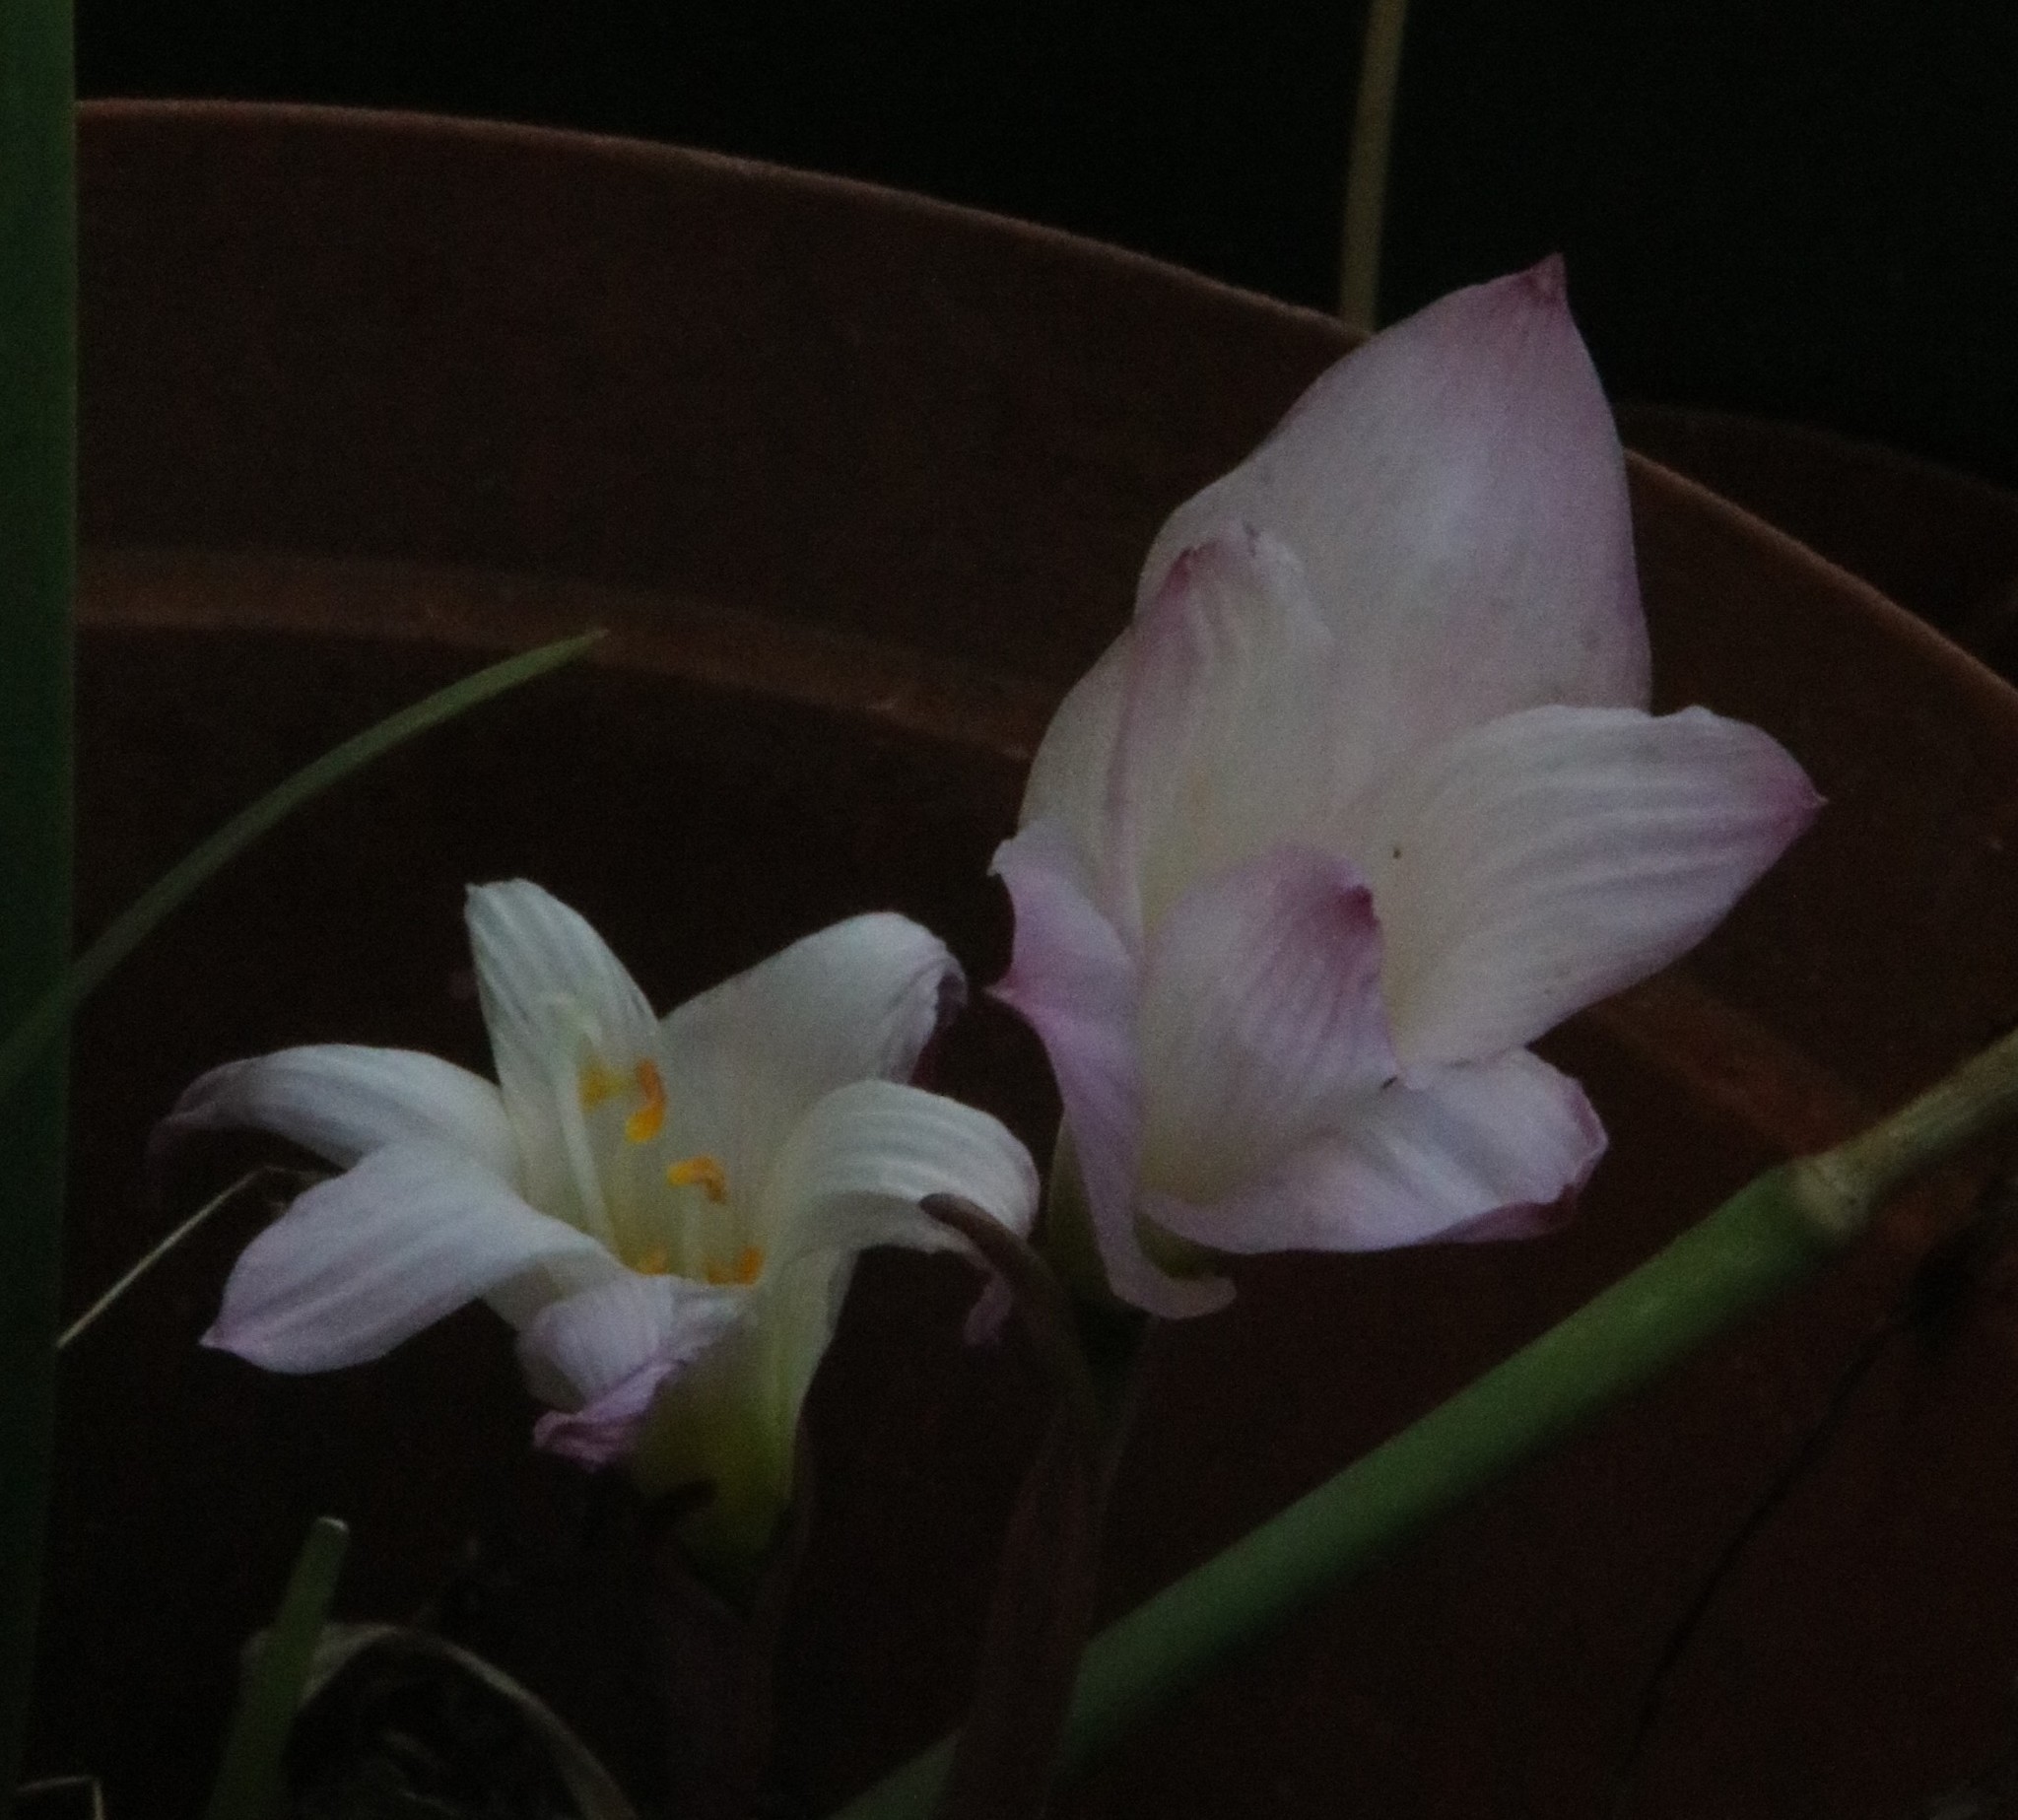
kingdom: Plantae
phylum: Tracheophyta
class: Liliopsida
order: Asparagales
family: Amaryllidaceae
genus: Zephyranthes
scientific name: Zephyranthes robusta
